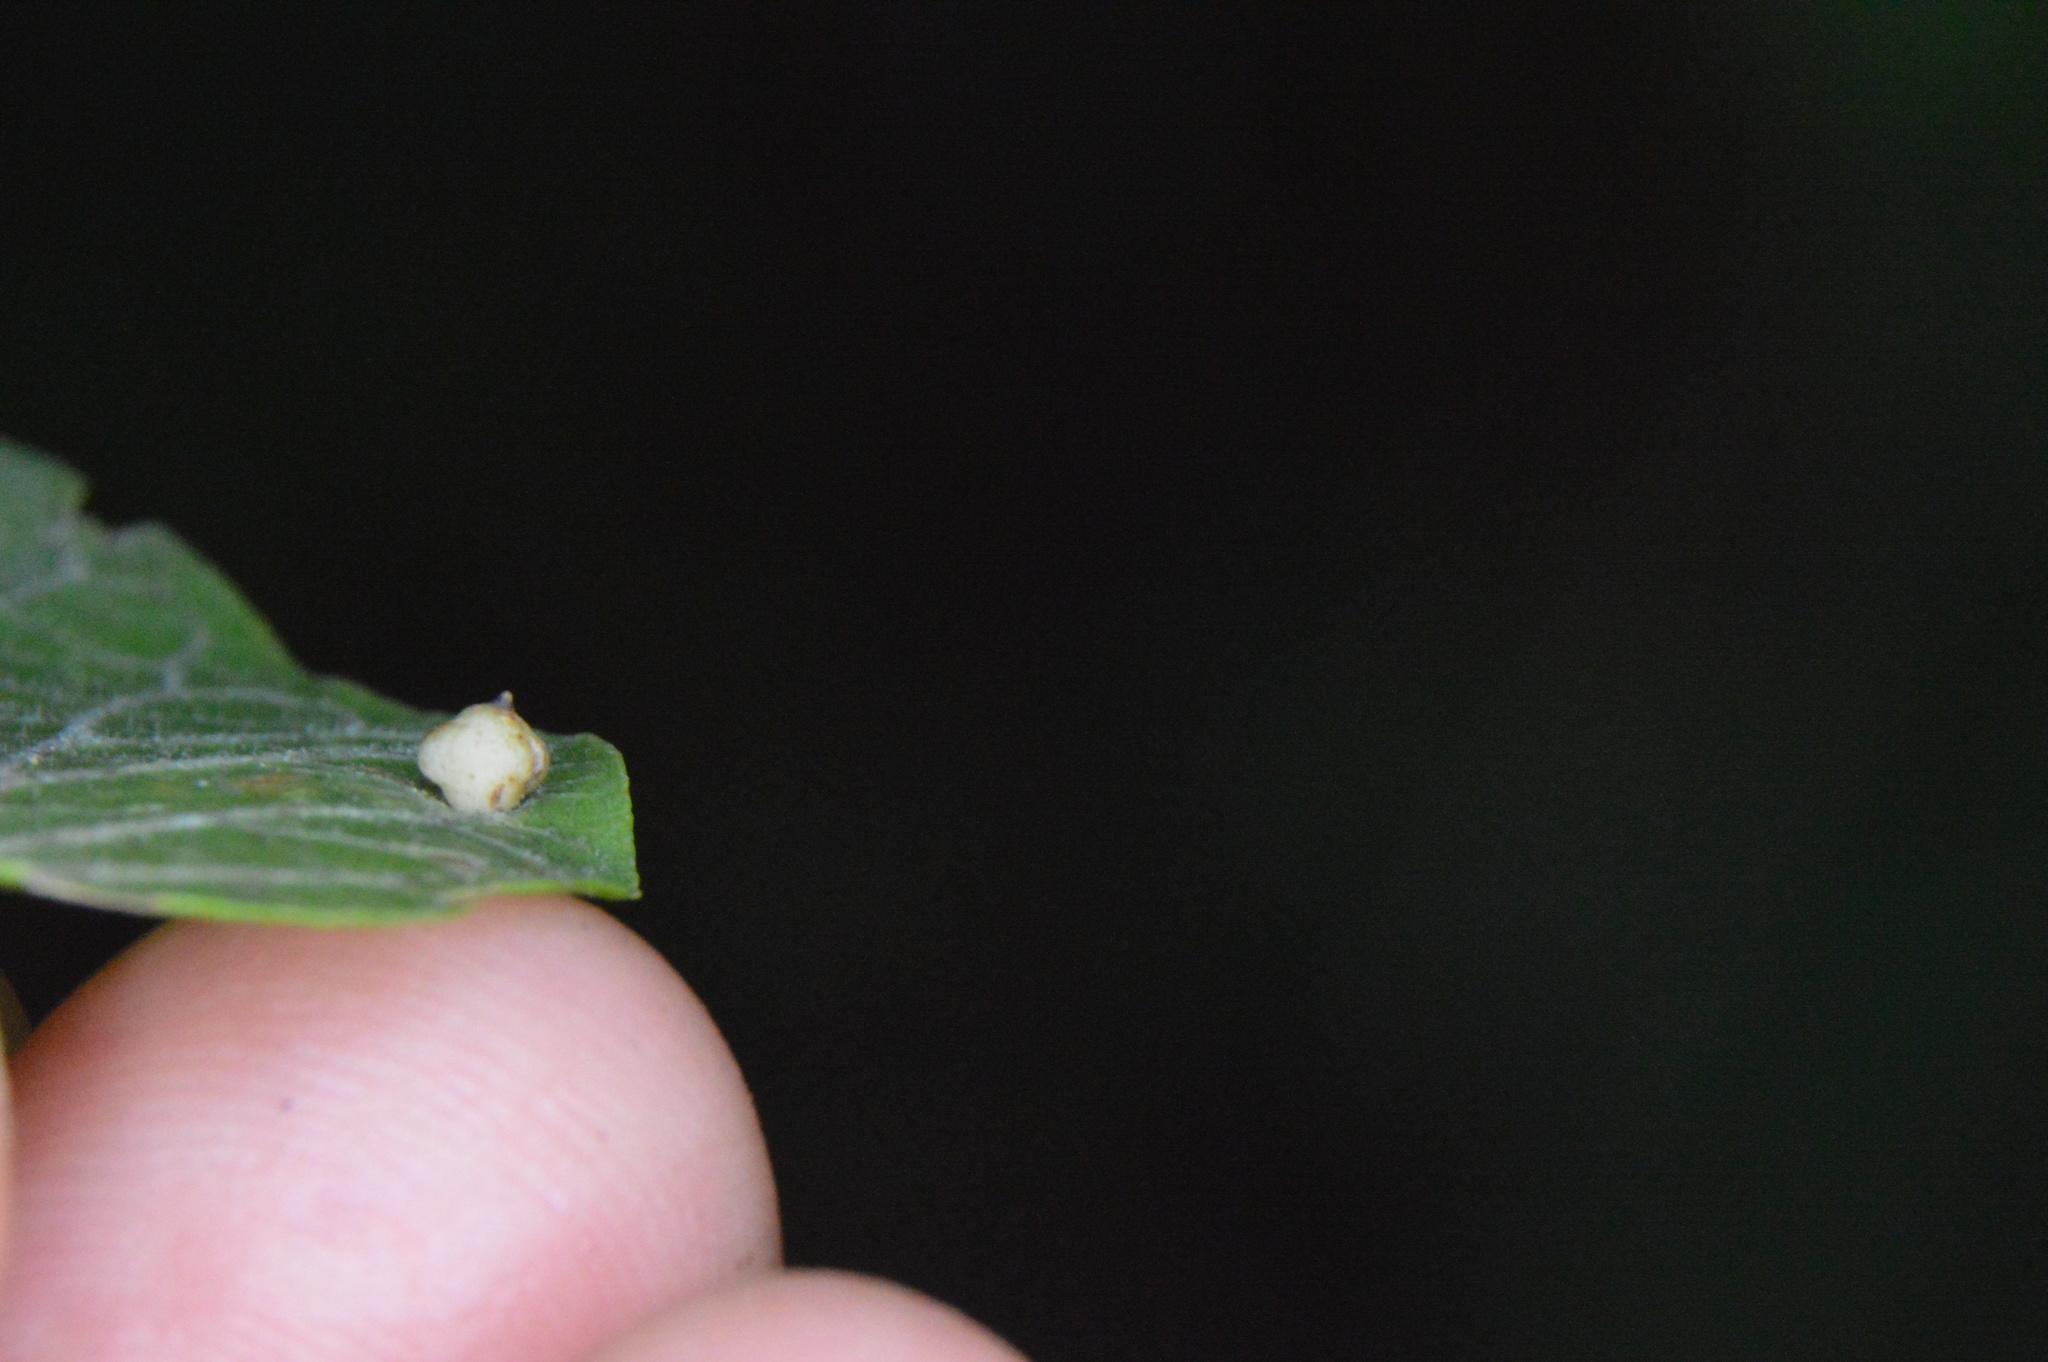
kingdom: Animalia
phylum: Arthropoda
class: Insecta
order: Diptera
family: Cecidomyiidae
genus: Celticecis
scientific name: Celticecis globosa
